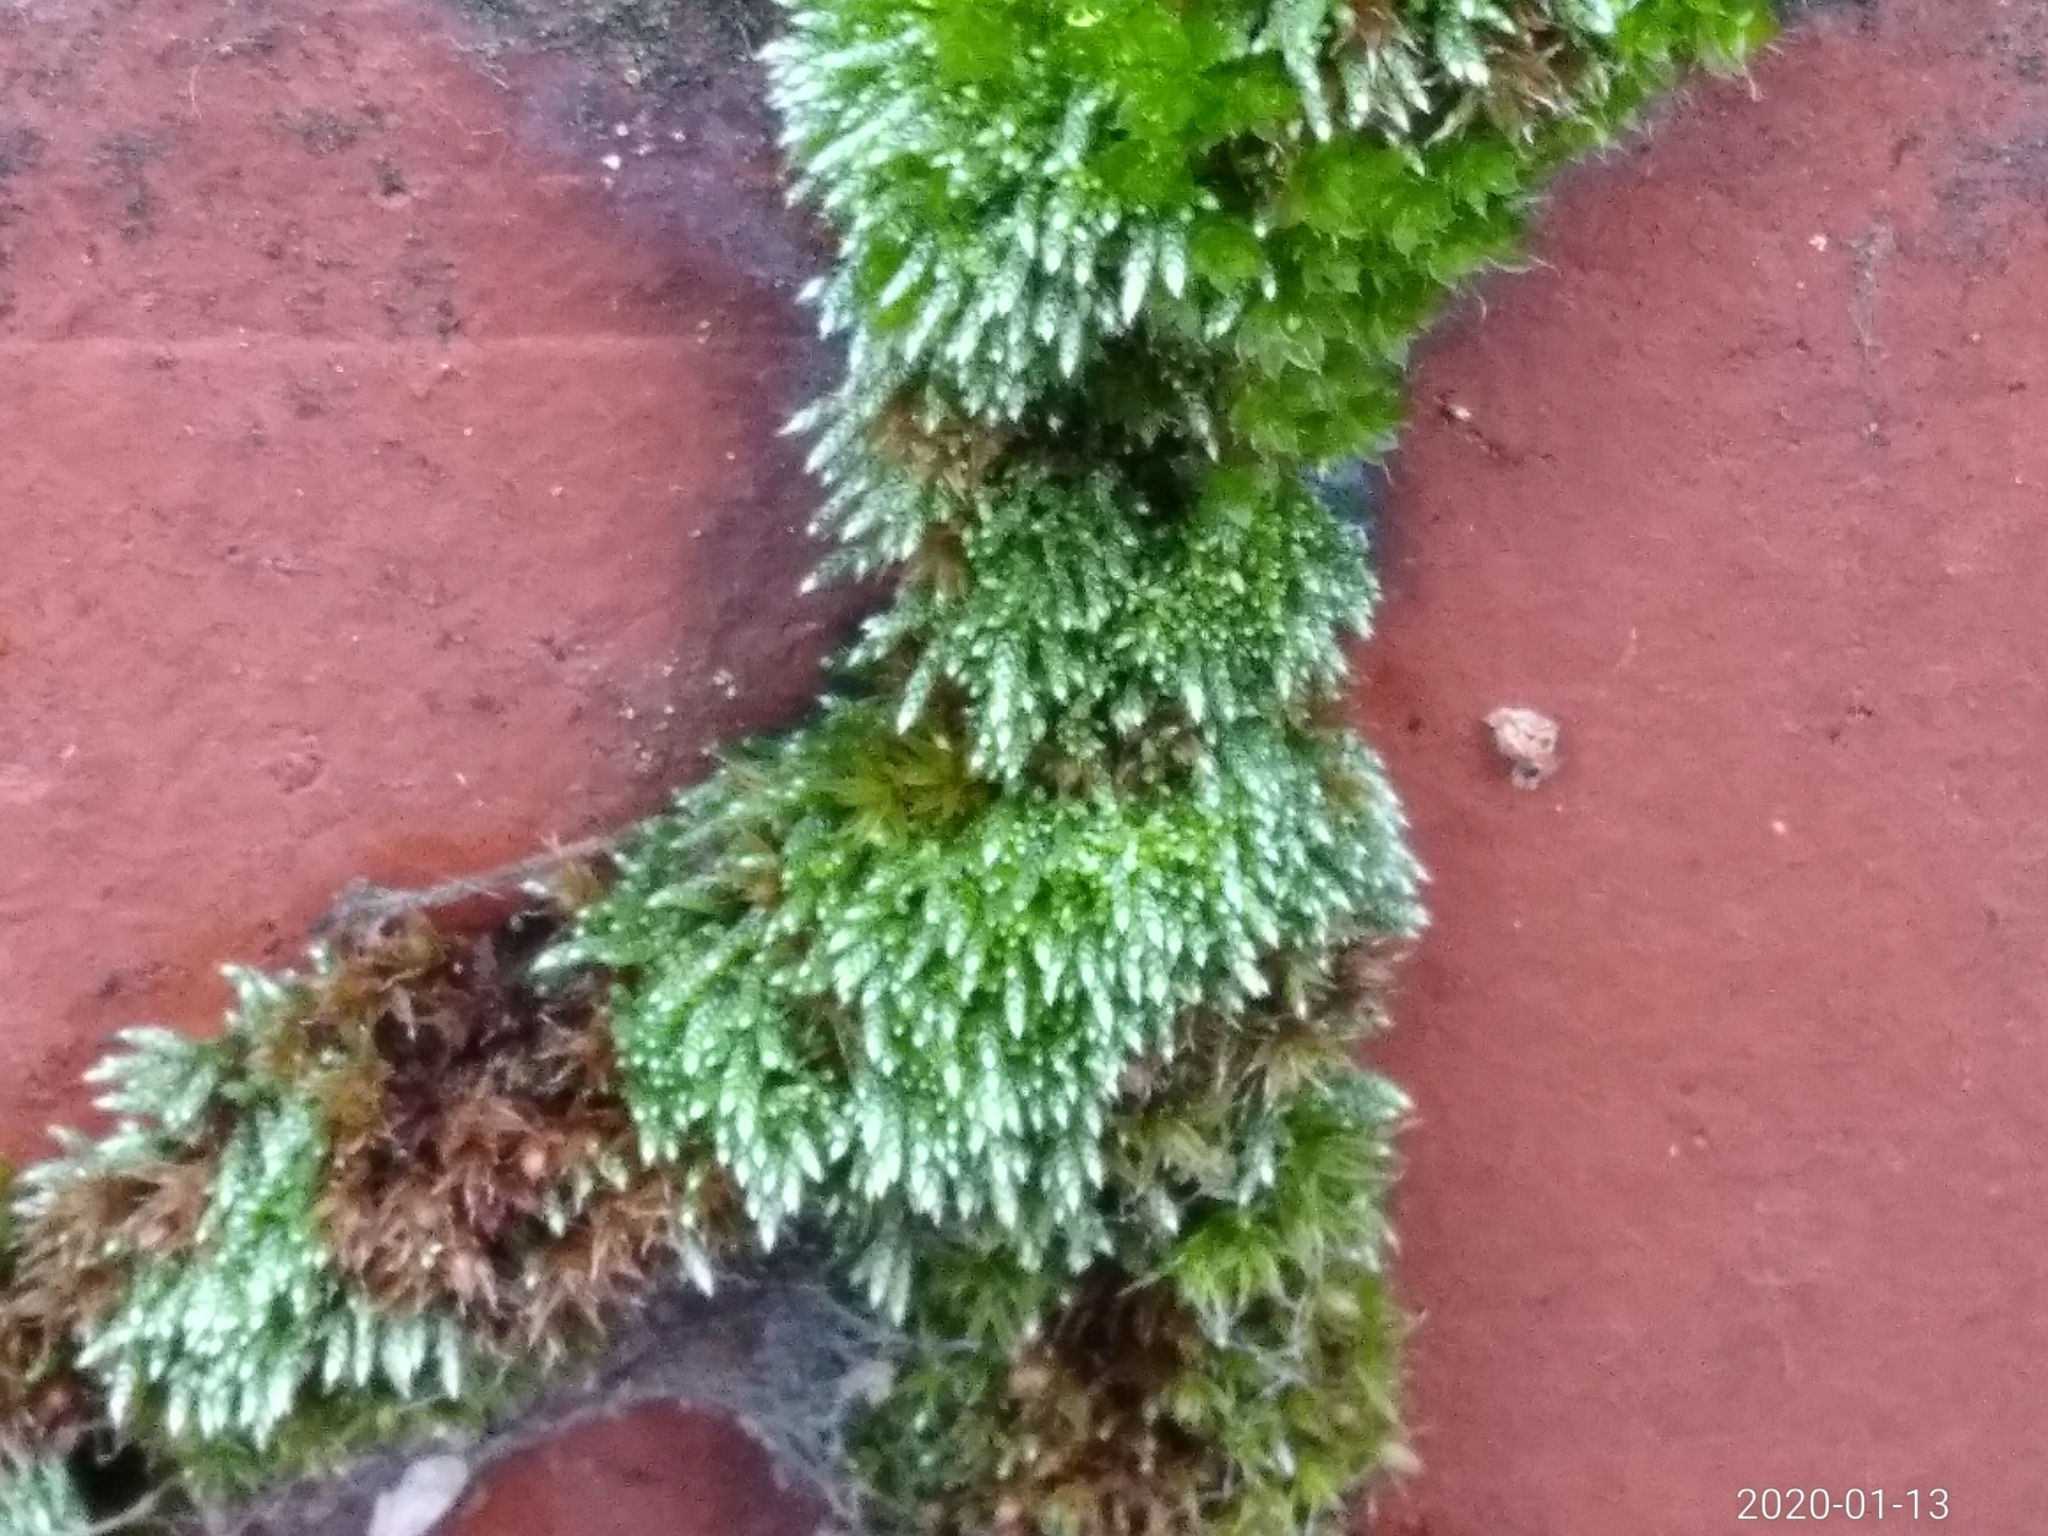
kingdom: Plantae
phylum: Bryophyta
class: Bryopsida
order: Bryales
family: Bryaceae
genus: Bryum
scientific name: Bryum argenteum
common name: Silver-moss
